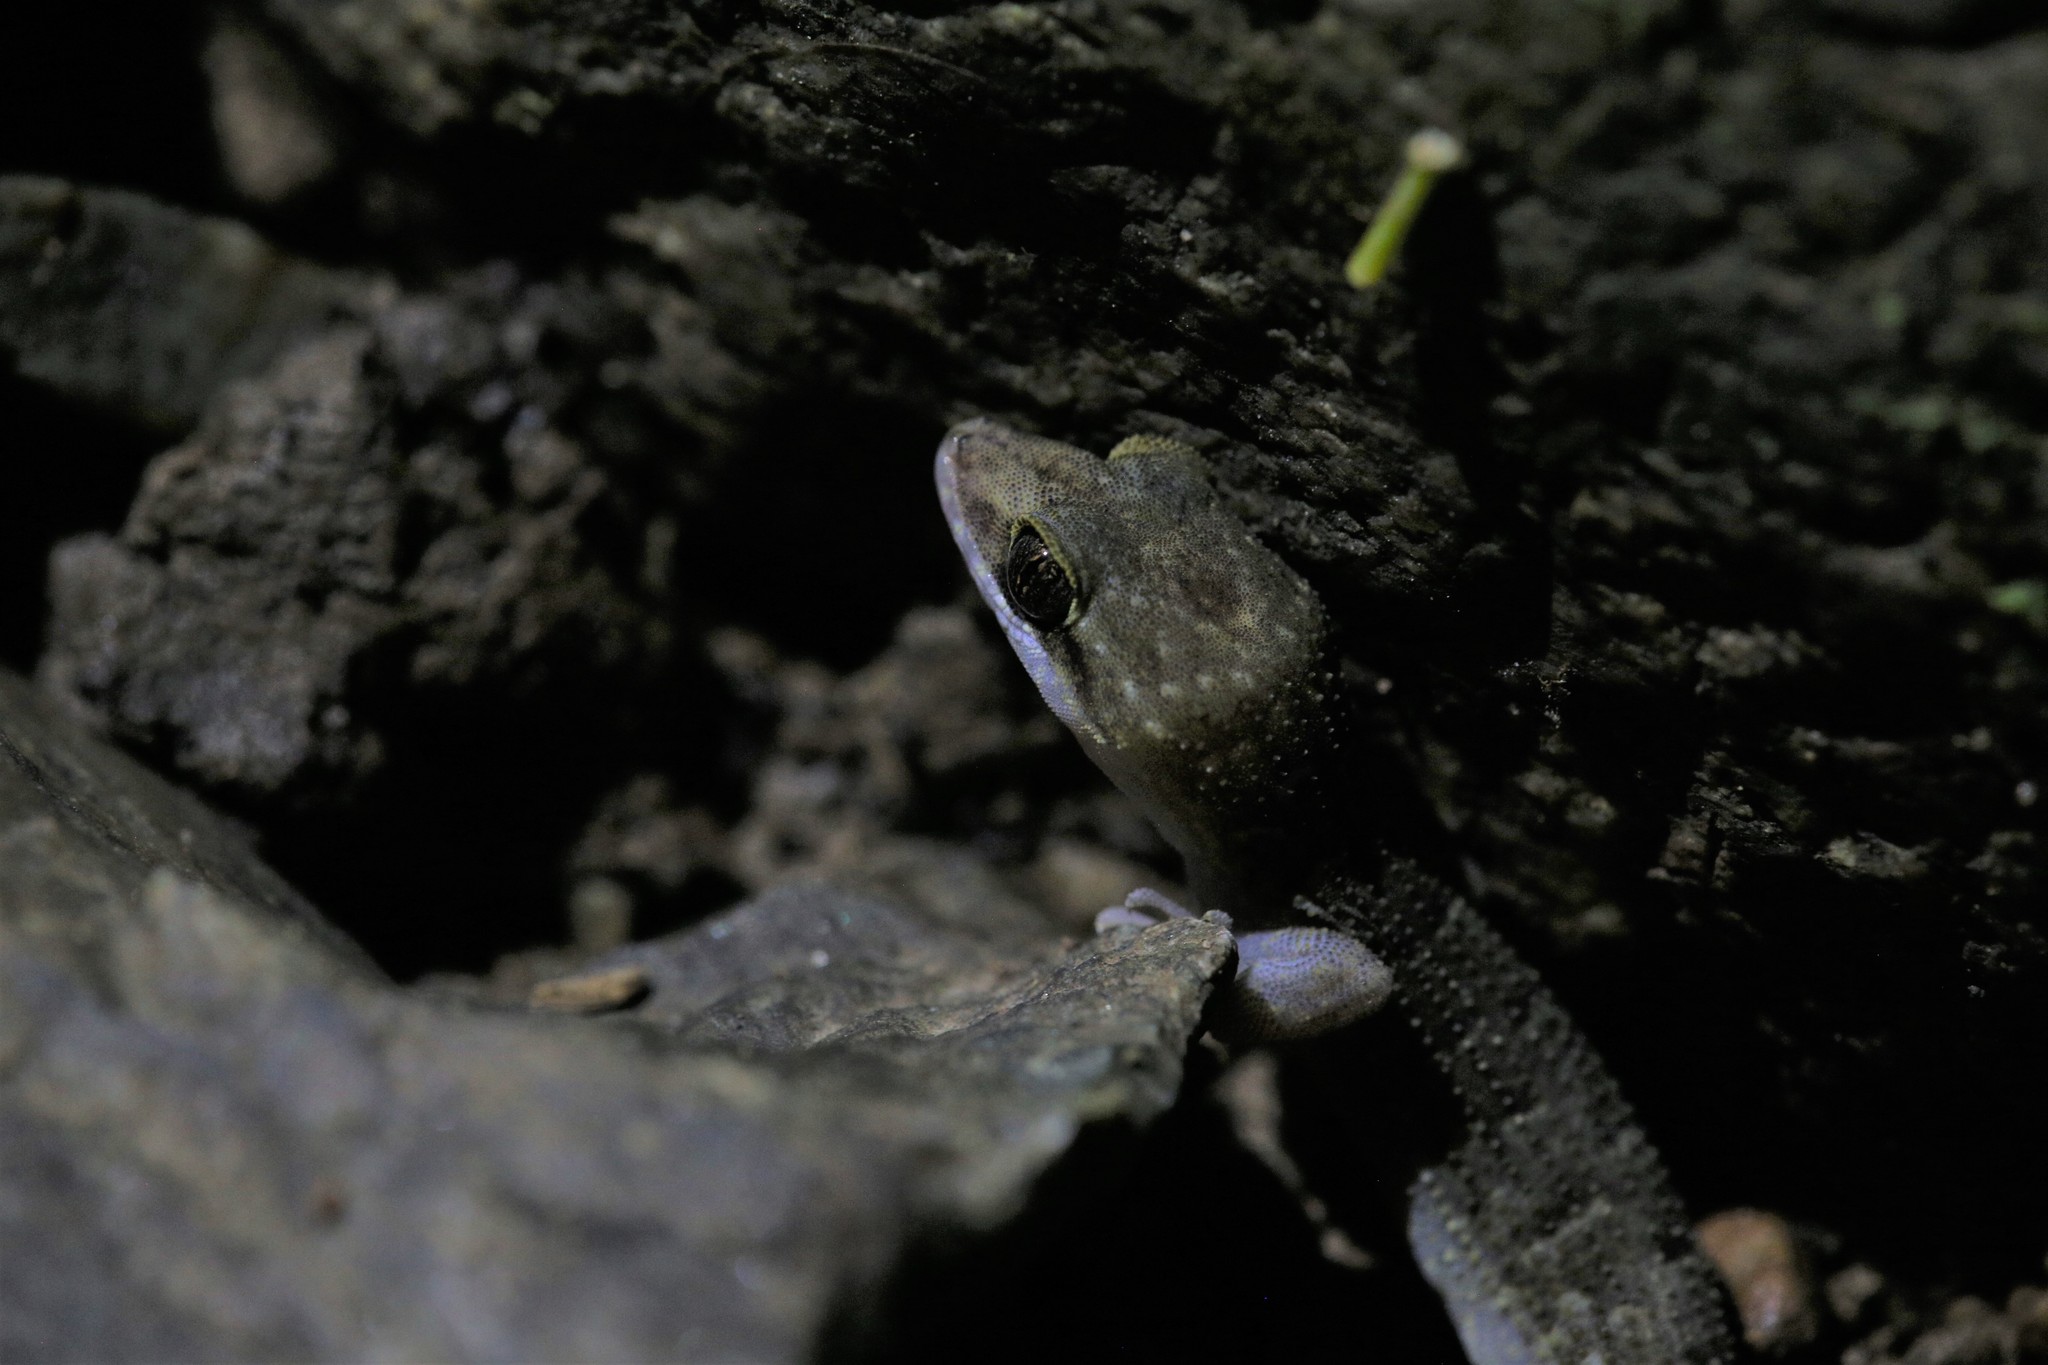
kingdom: Animalia
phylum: Chordata
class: Squamata
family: Gekkonidae
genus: Nactus
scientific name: Nactus cheverti
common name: Chevert's gecko
